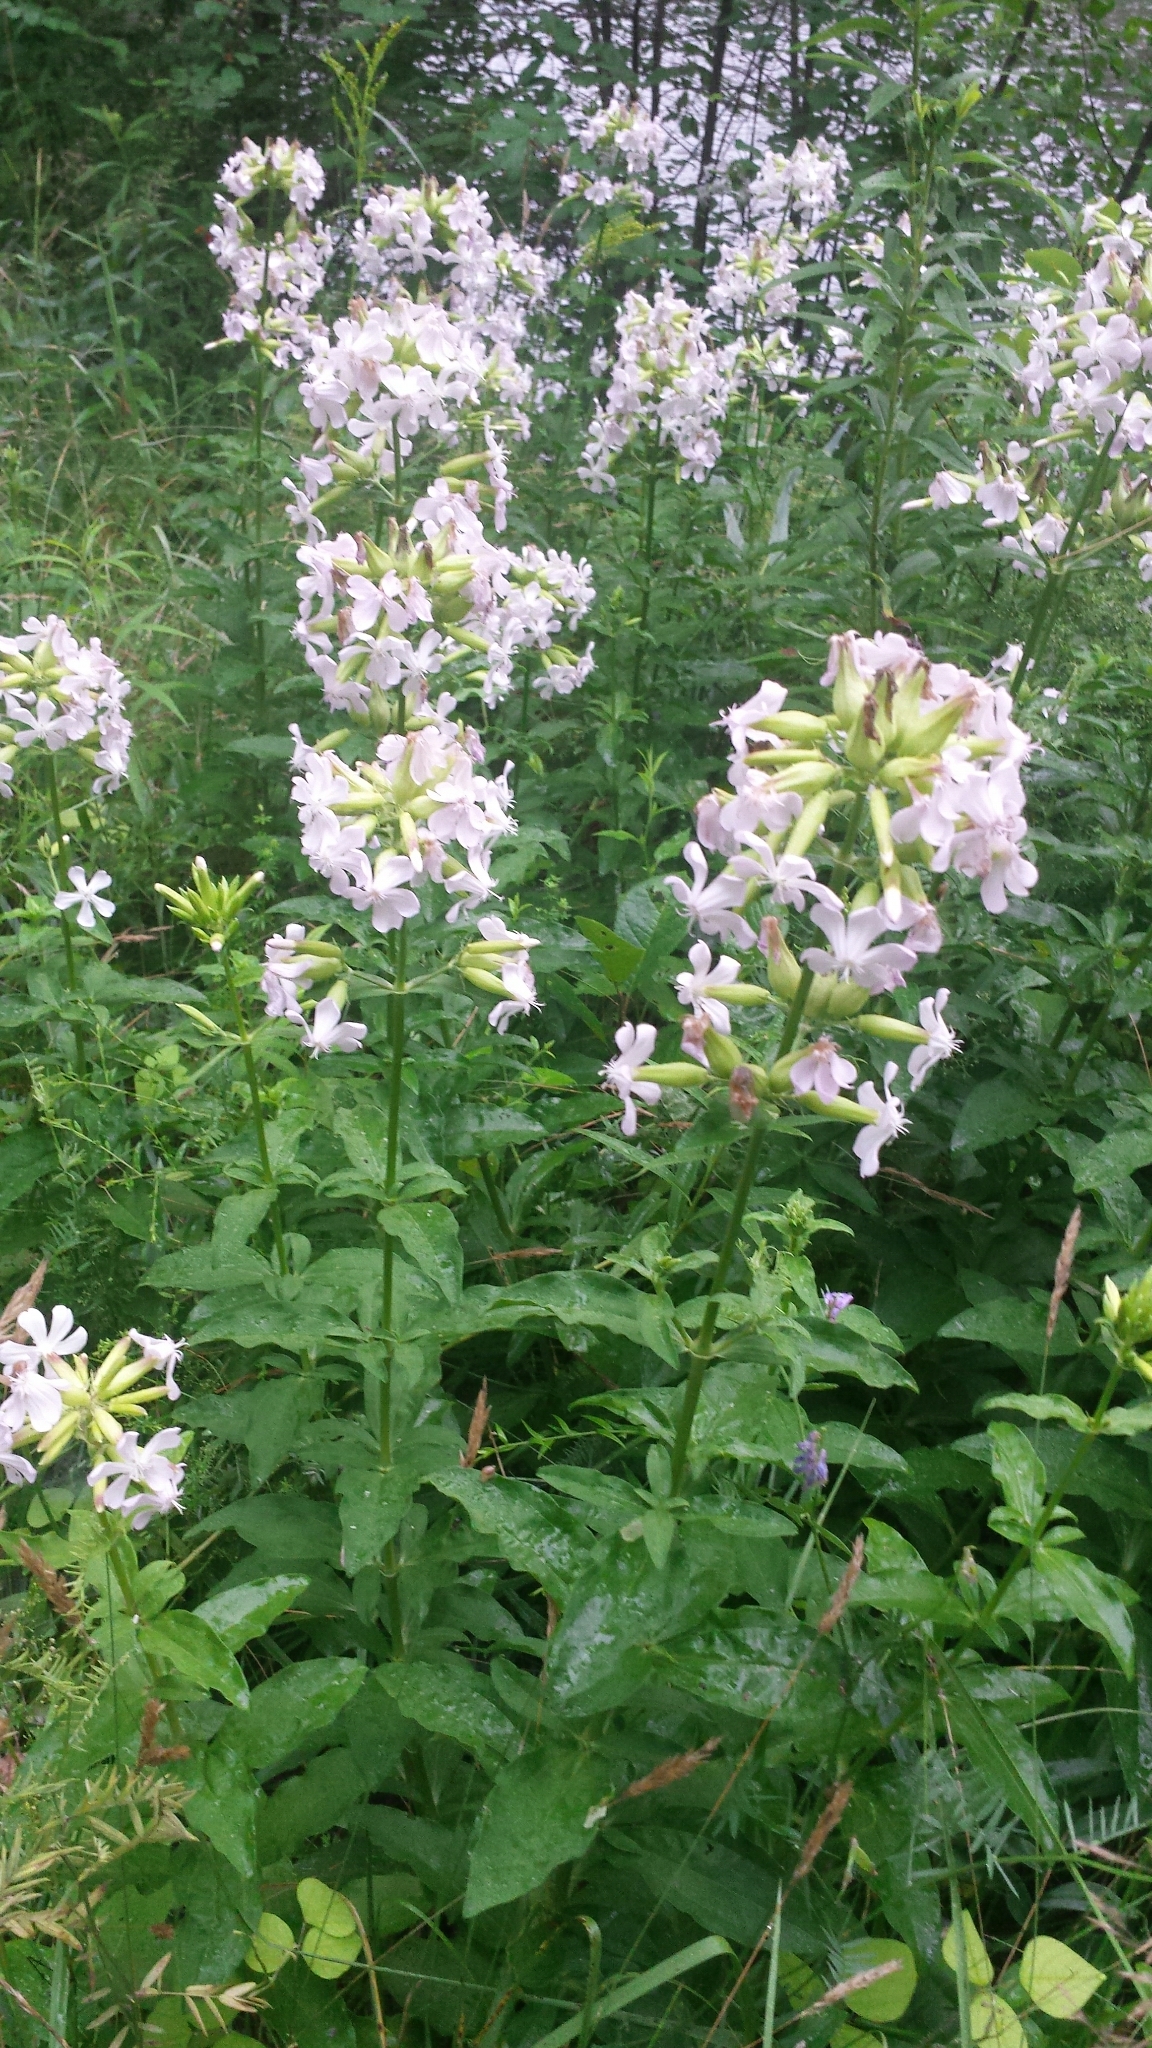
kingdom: Plantae
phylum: Tracheophyta
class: Magnoliopsida
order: Caryophyllales
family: Caryophyllaceae
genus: Saponaria
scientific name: Saponaria officinalis
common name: Soapwort
